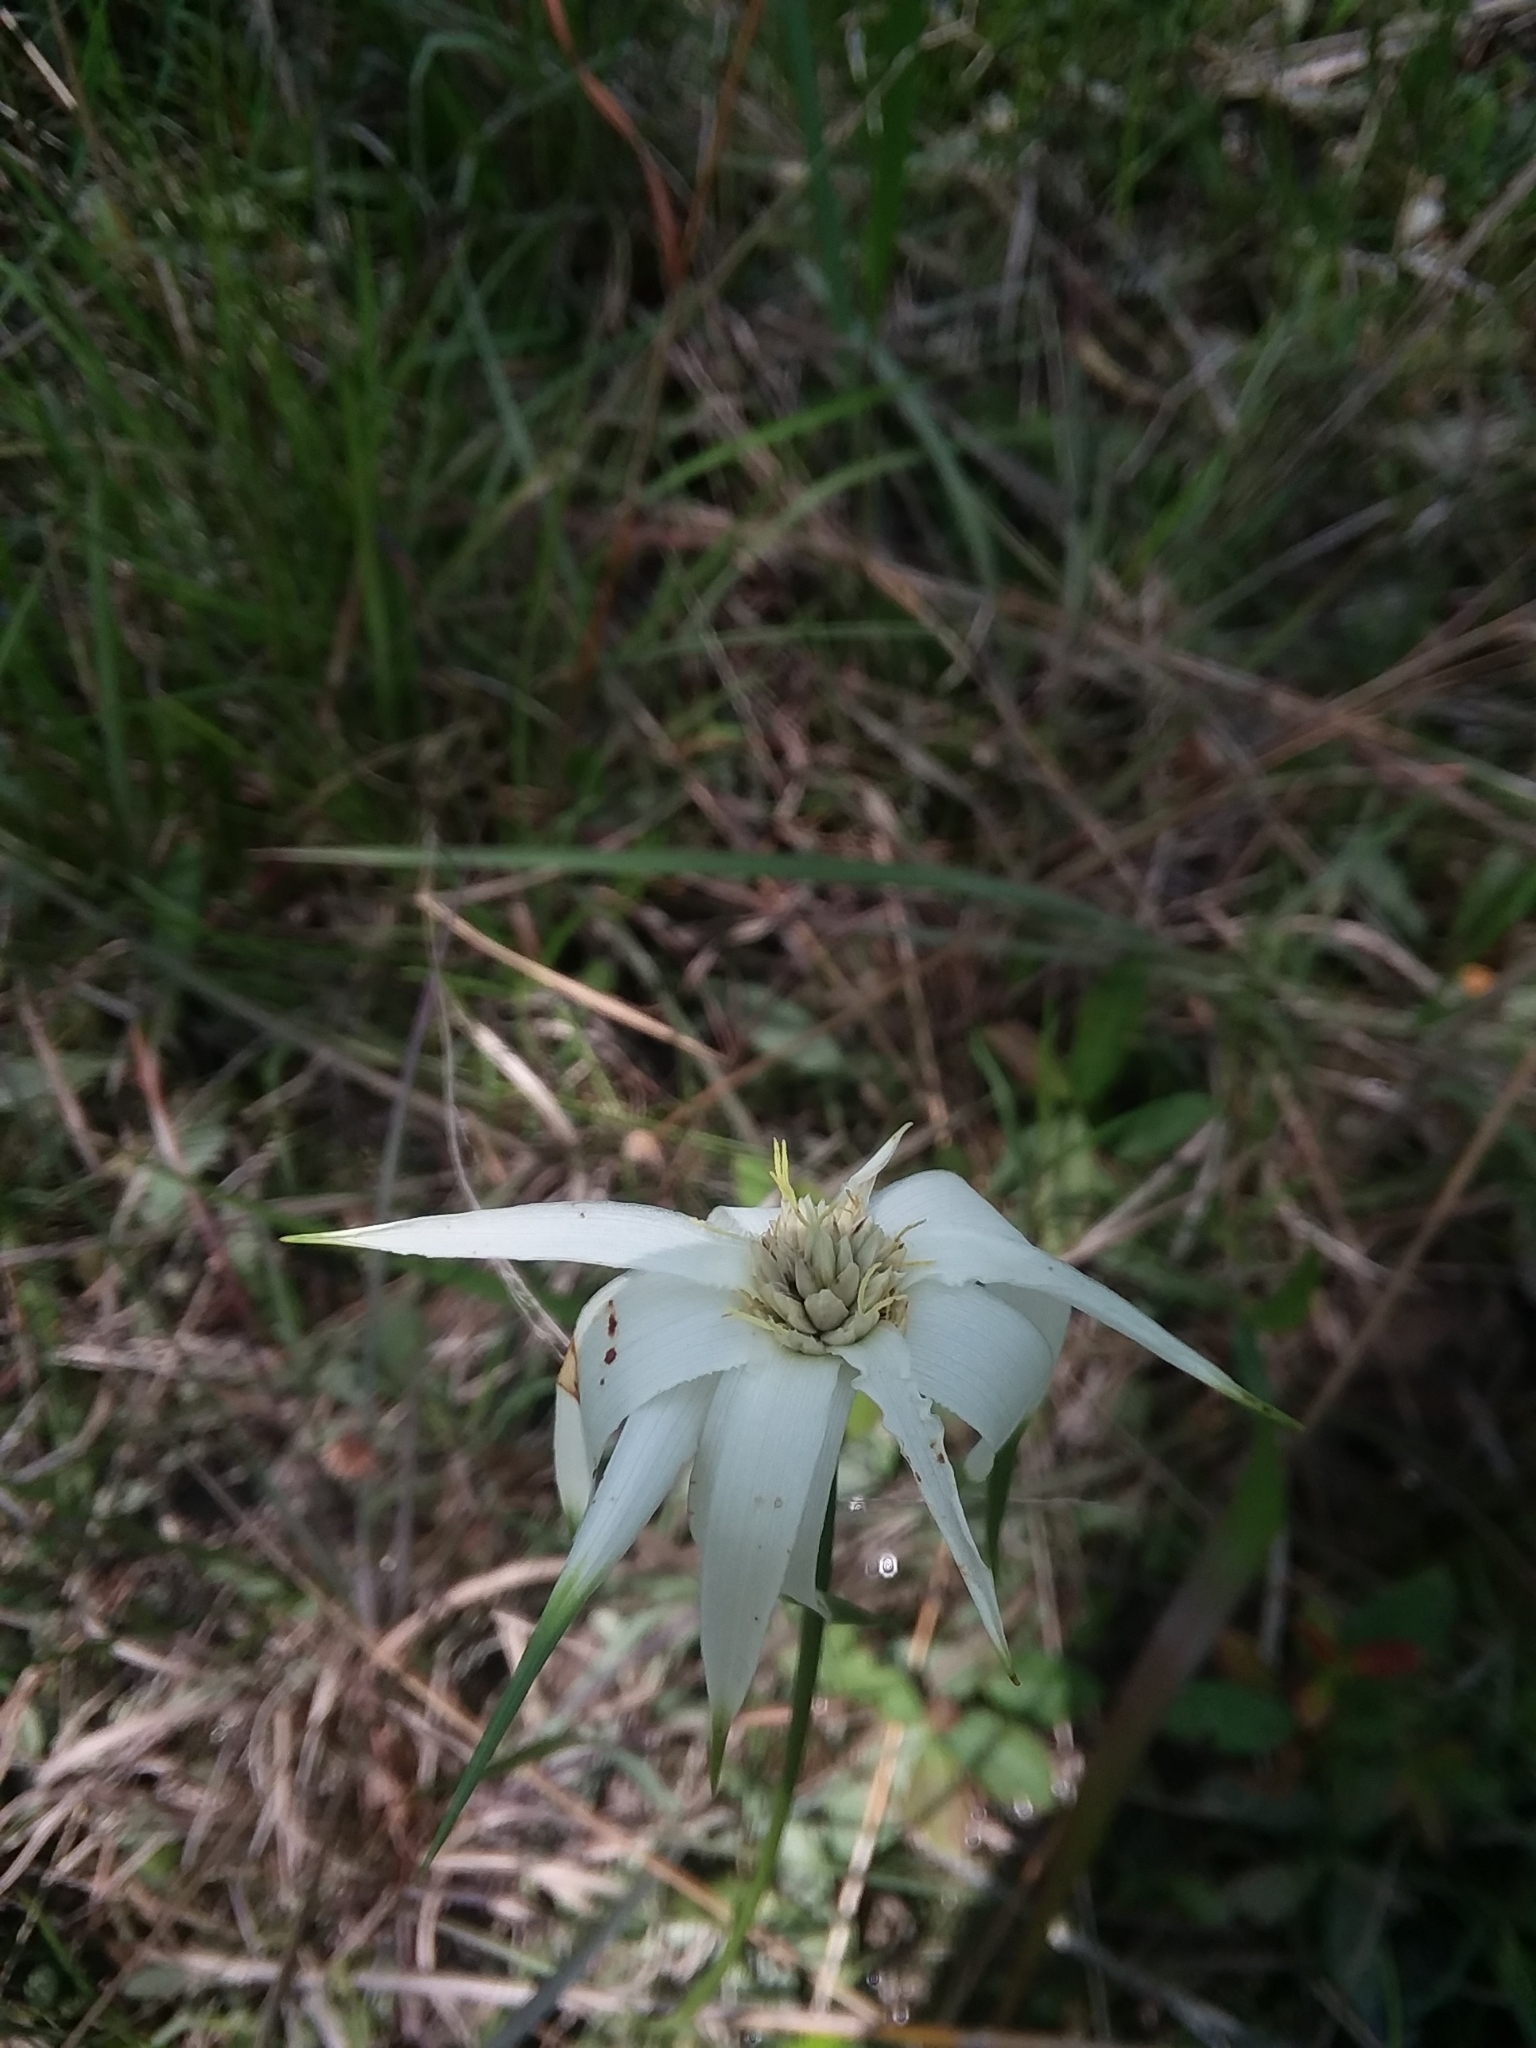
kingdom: Plantae
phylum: Tracheophyta
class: Liliopsida
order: Poales
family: Cyperaceae
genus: Rhynchospora
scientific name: Rhynchospora latifolia
